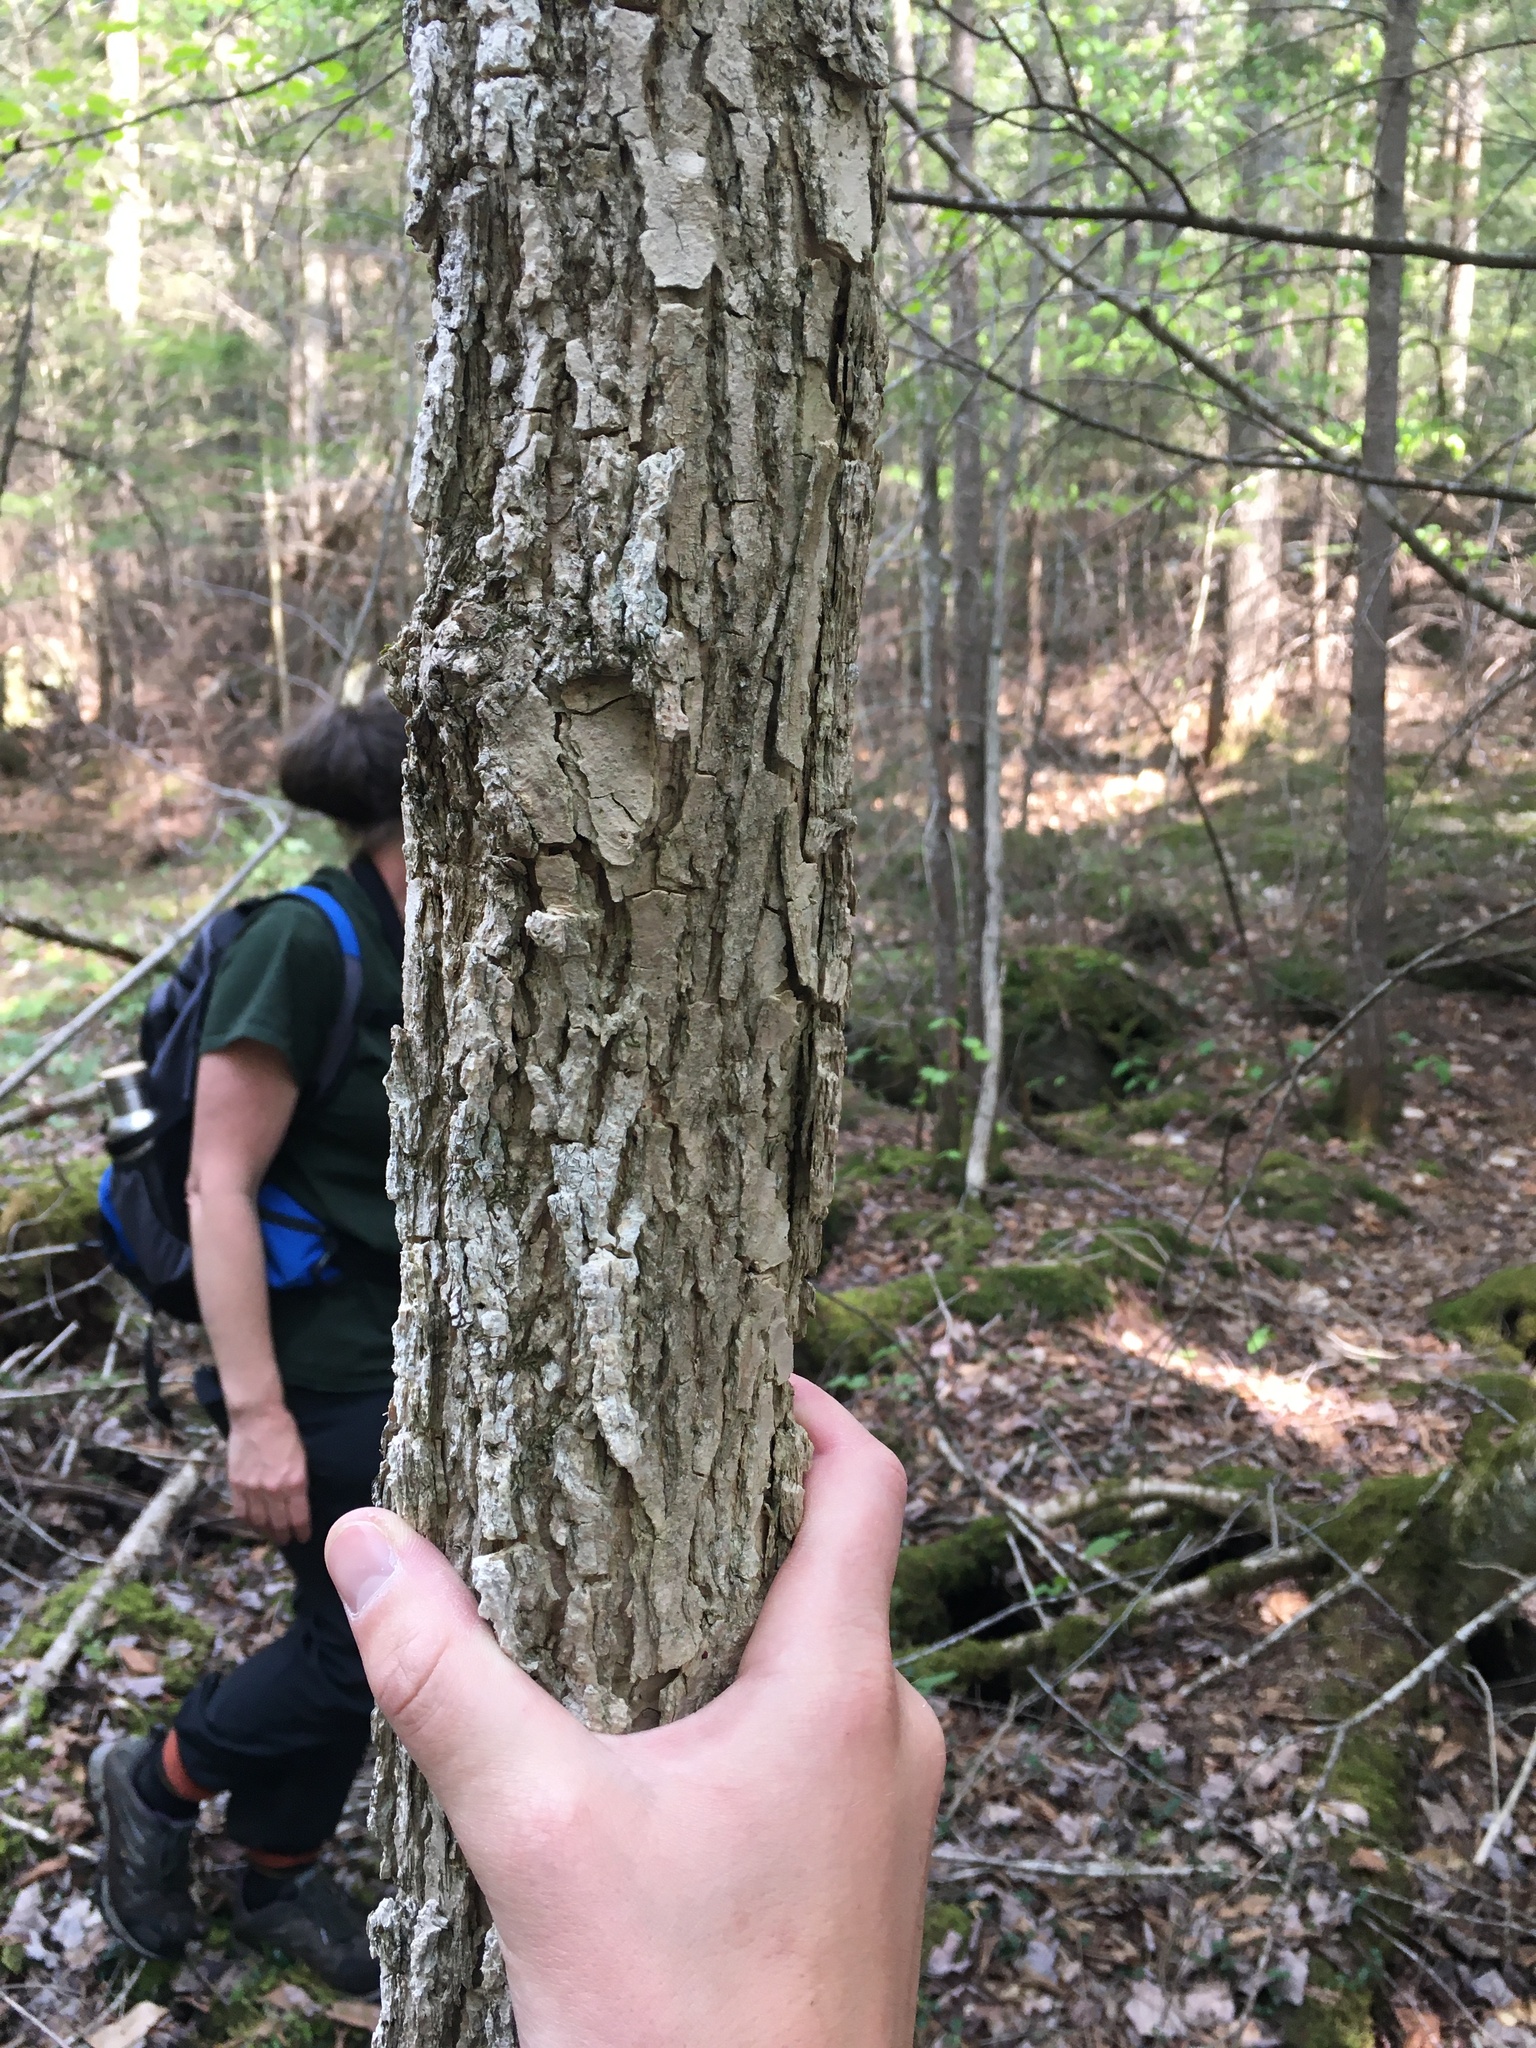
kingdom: Plantae
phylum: Tracheophyta
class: Magnoliopsida
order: Lamiales
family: Oleaceae
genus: Fraxinus
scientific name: Fraxinus nigra
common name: Black ash
